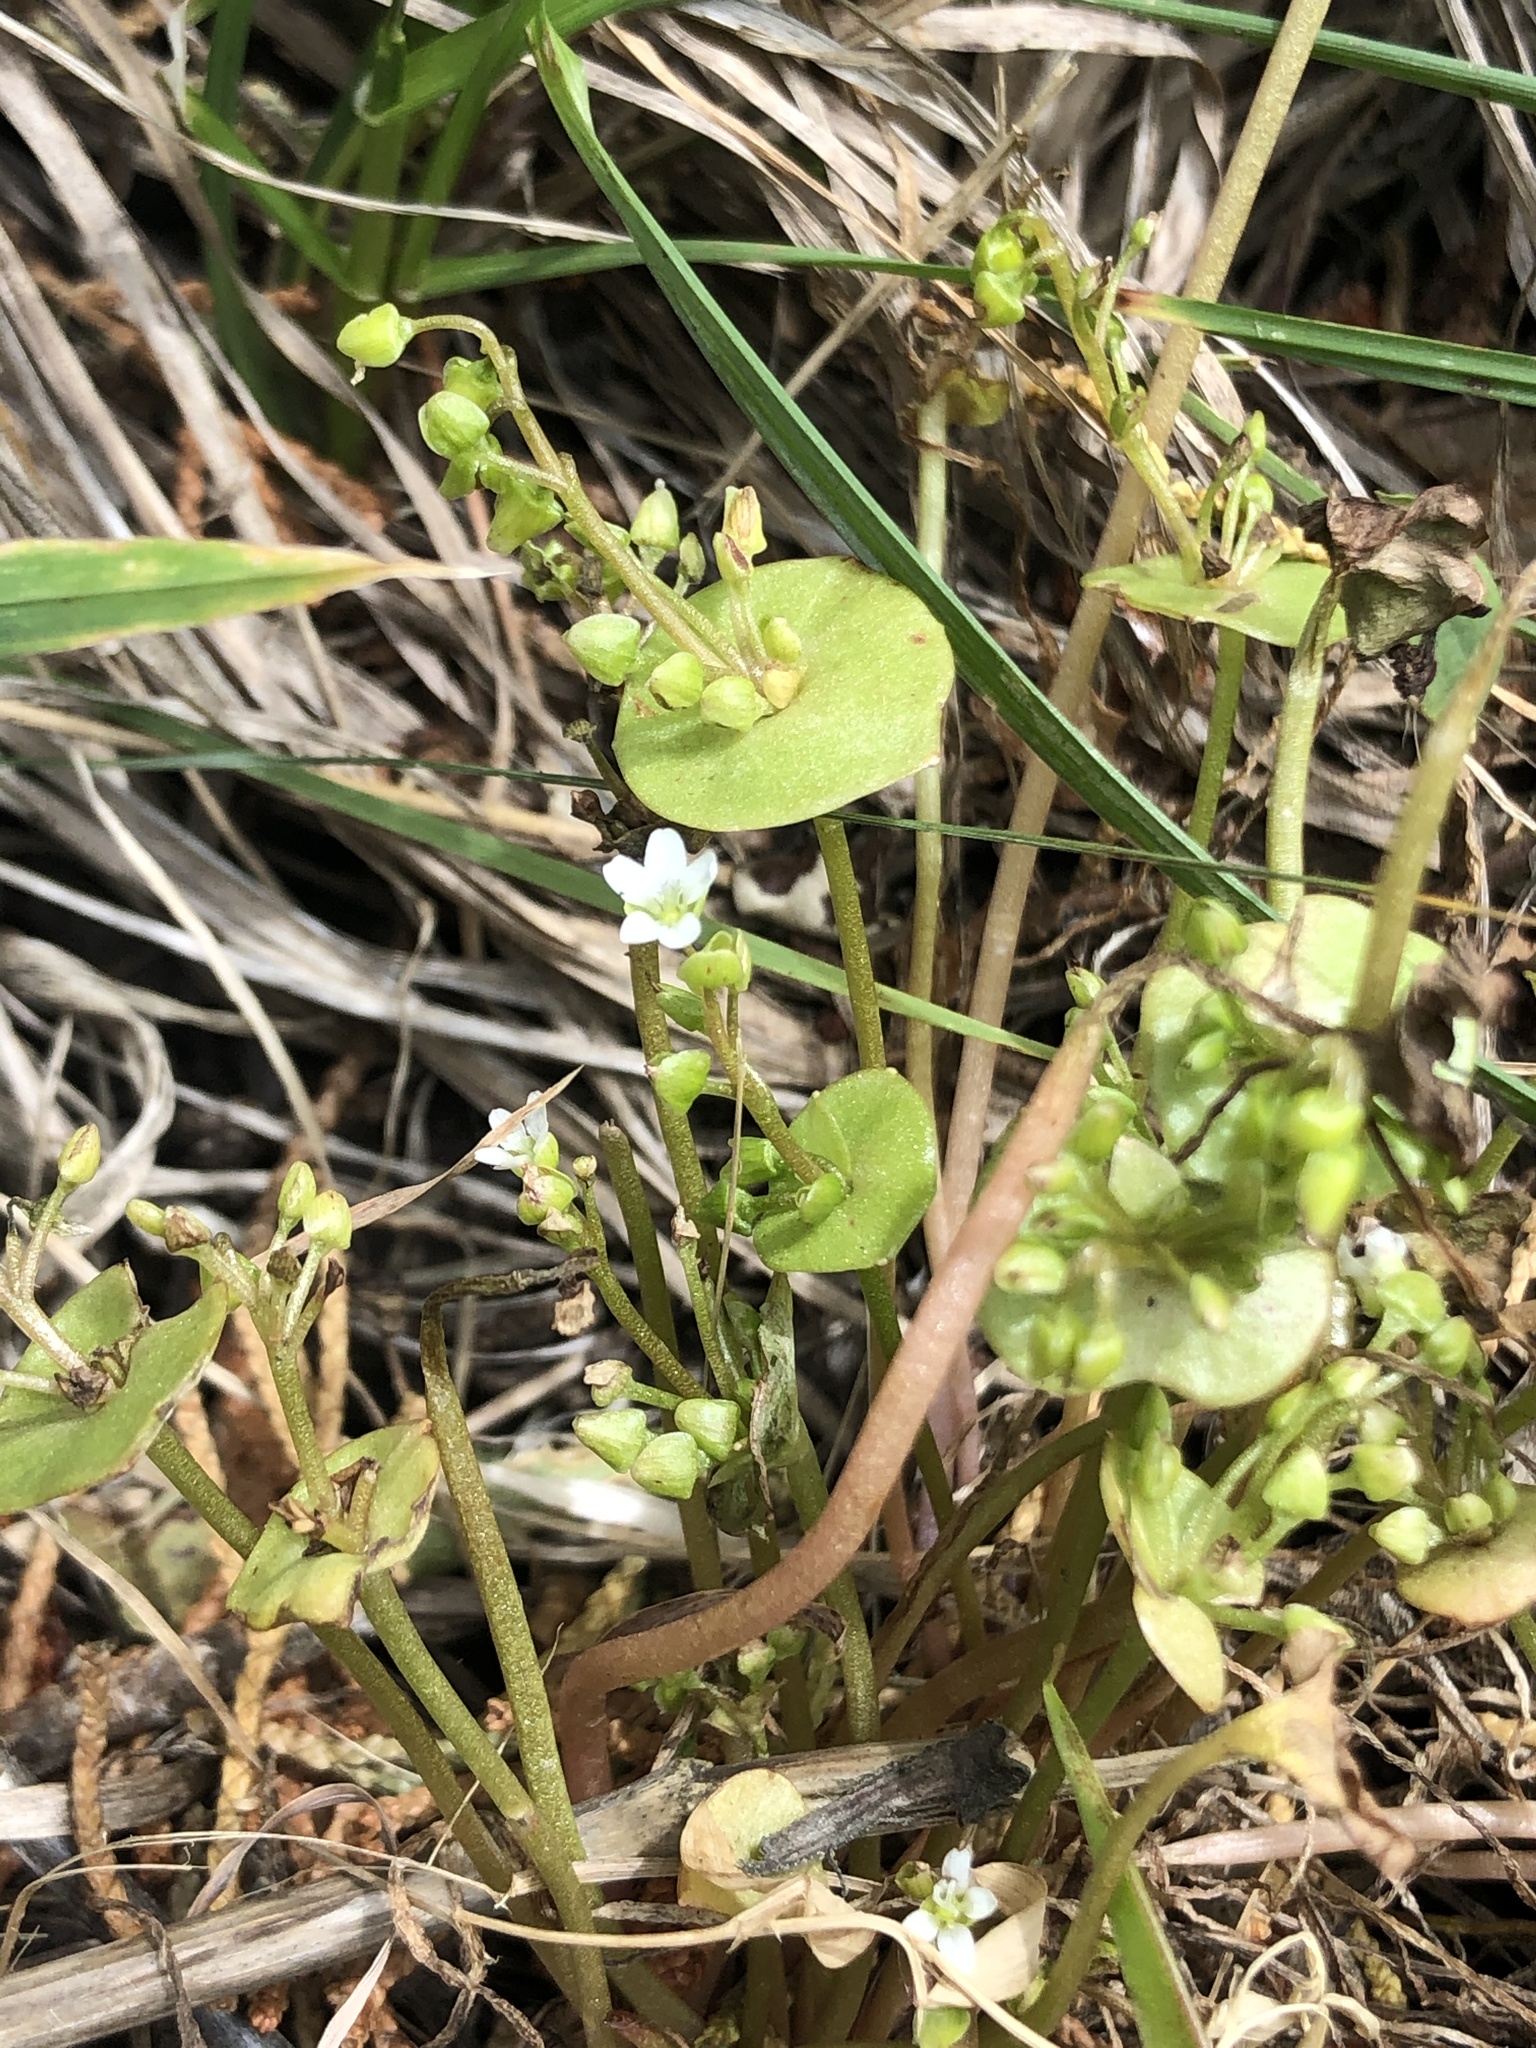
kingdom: Plantae
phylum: Tracheophyta
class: Magnoliopsida
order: Caryophyllales
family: Montiaceae
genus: Claytonia
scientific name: Claytonia perfoliata
